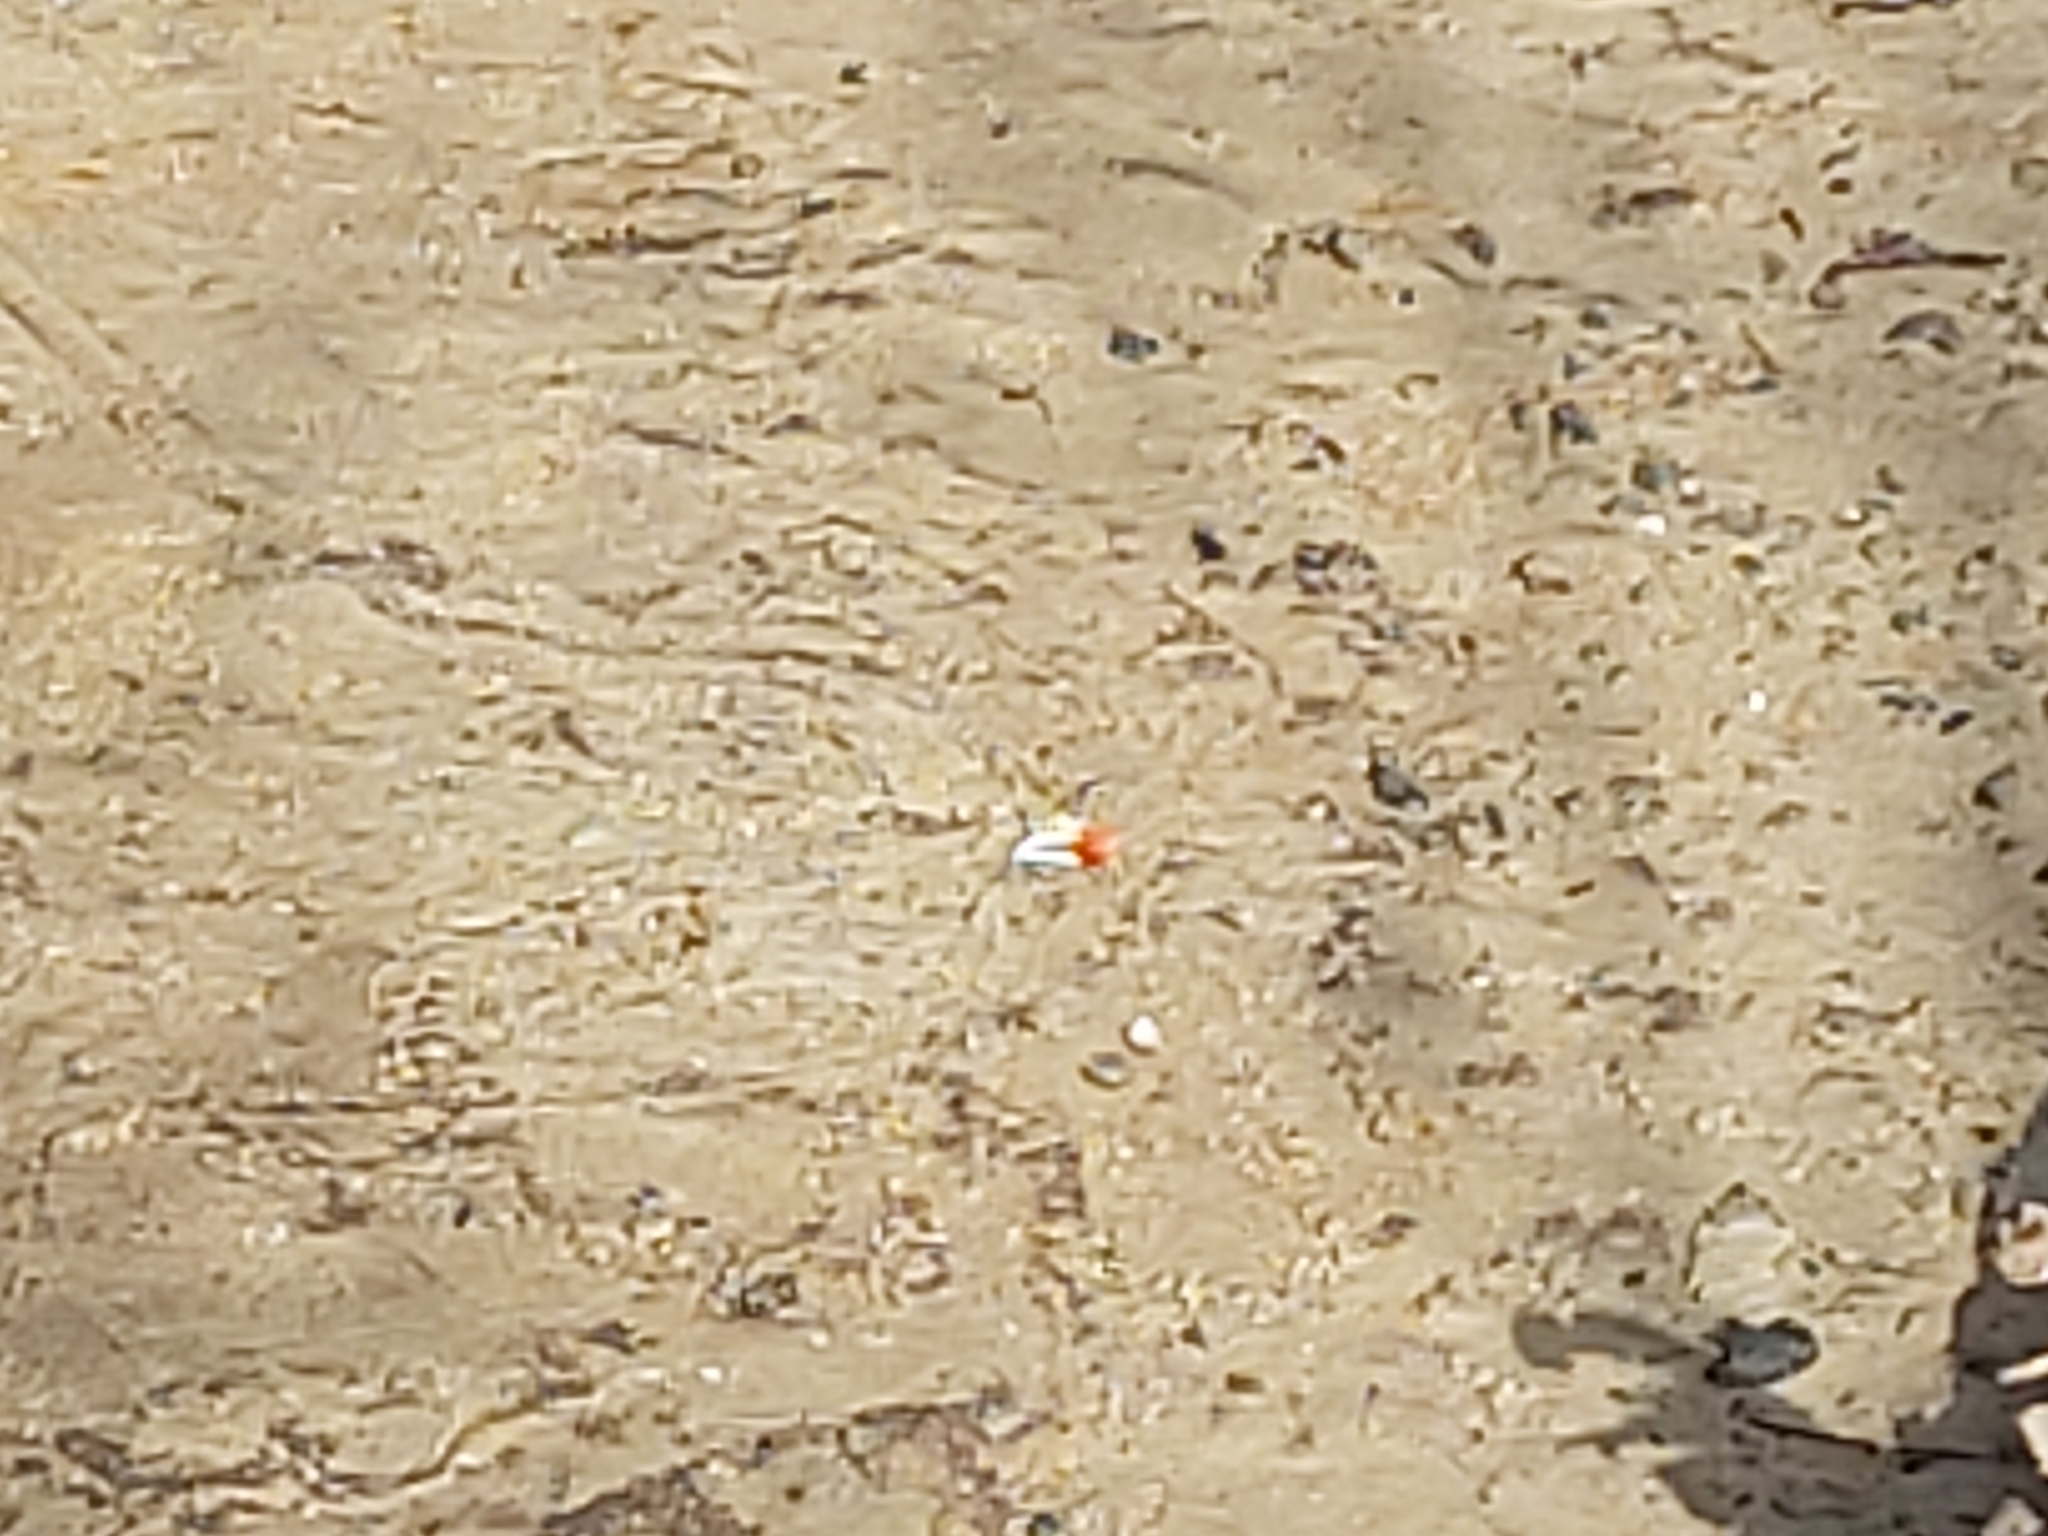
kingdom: Animalia
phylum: Arthropoda
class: Malacostraca
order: Decapoda
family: Ocypodidae
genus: Tubuca
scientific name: Tubuca signata
